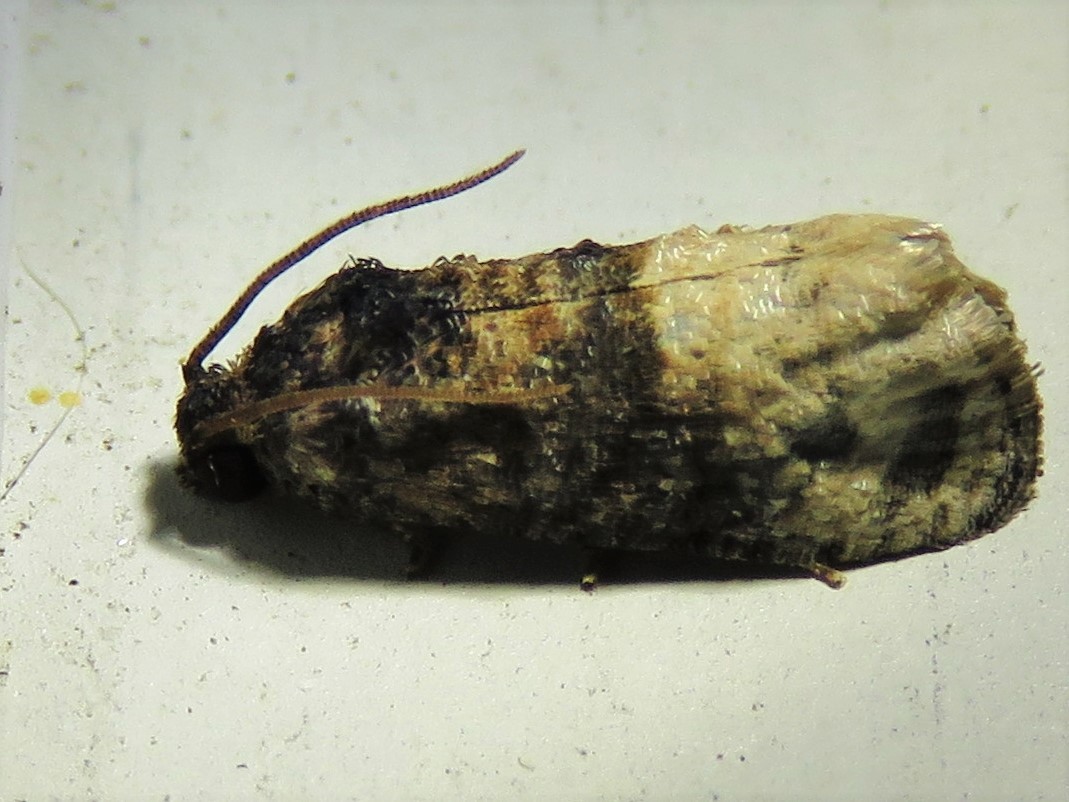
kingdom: Animalia
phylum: Arthropoda
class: Insecta
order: Lepidoptera
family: Tortricidae
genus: Ecdytolopha
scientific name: Ecdytolopha mana
